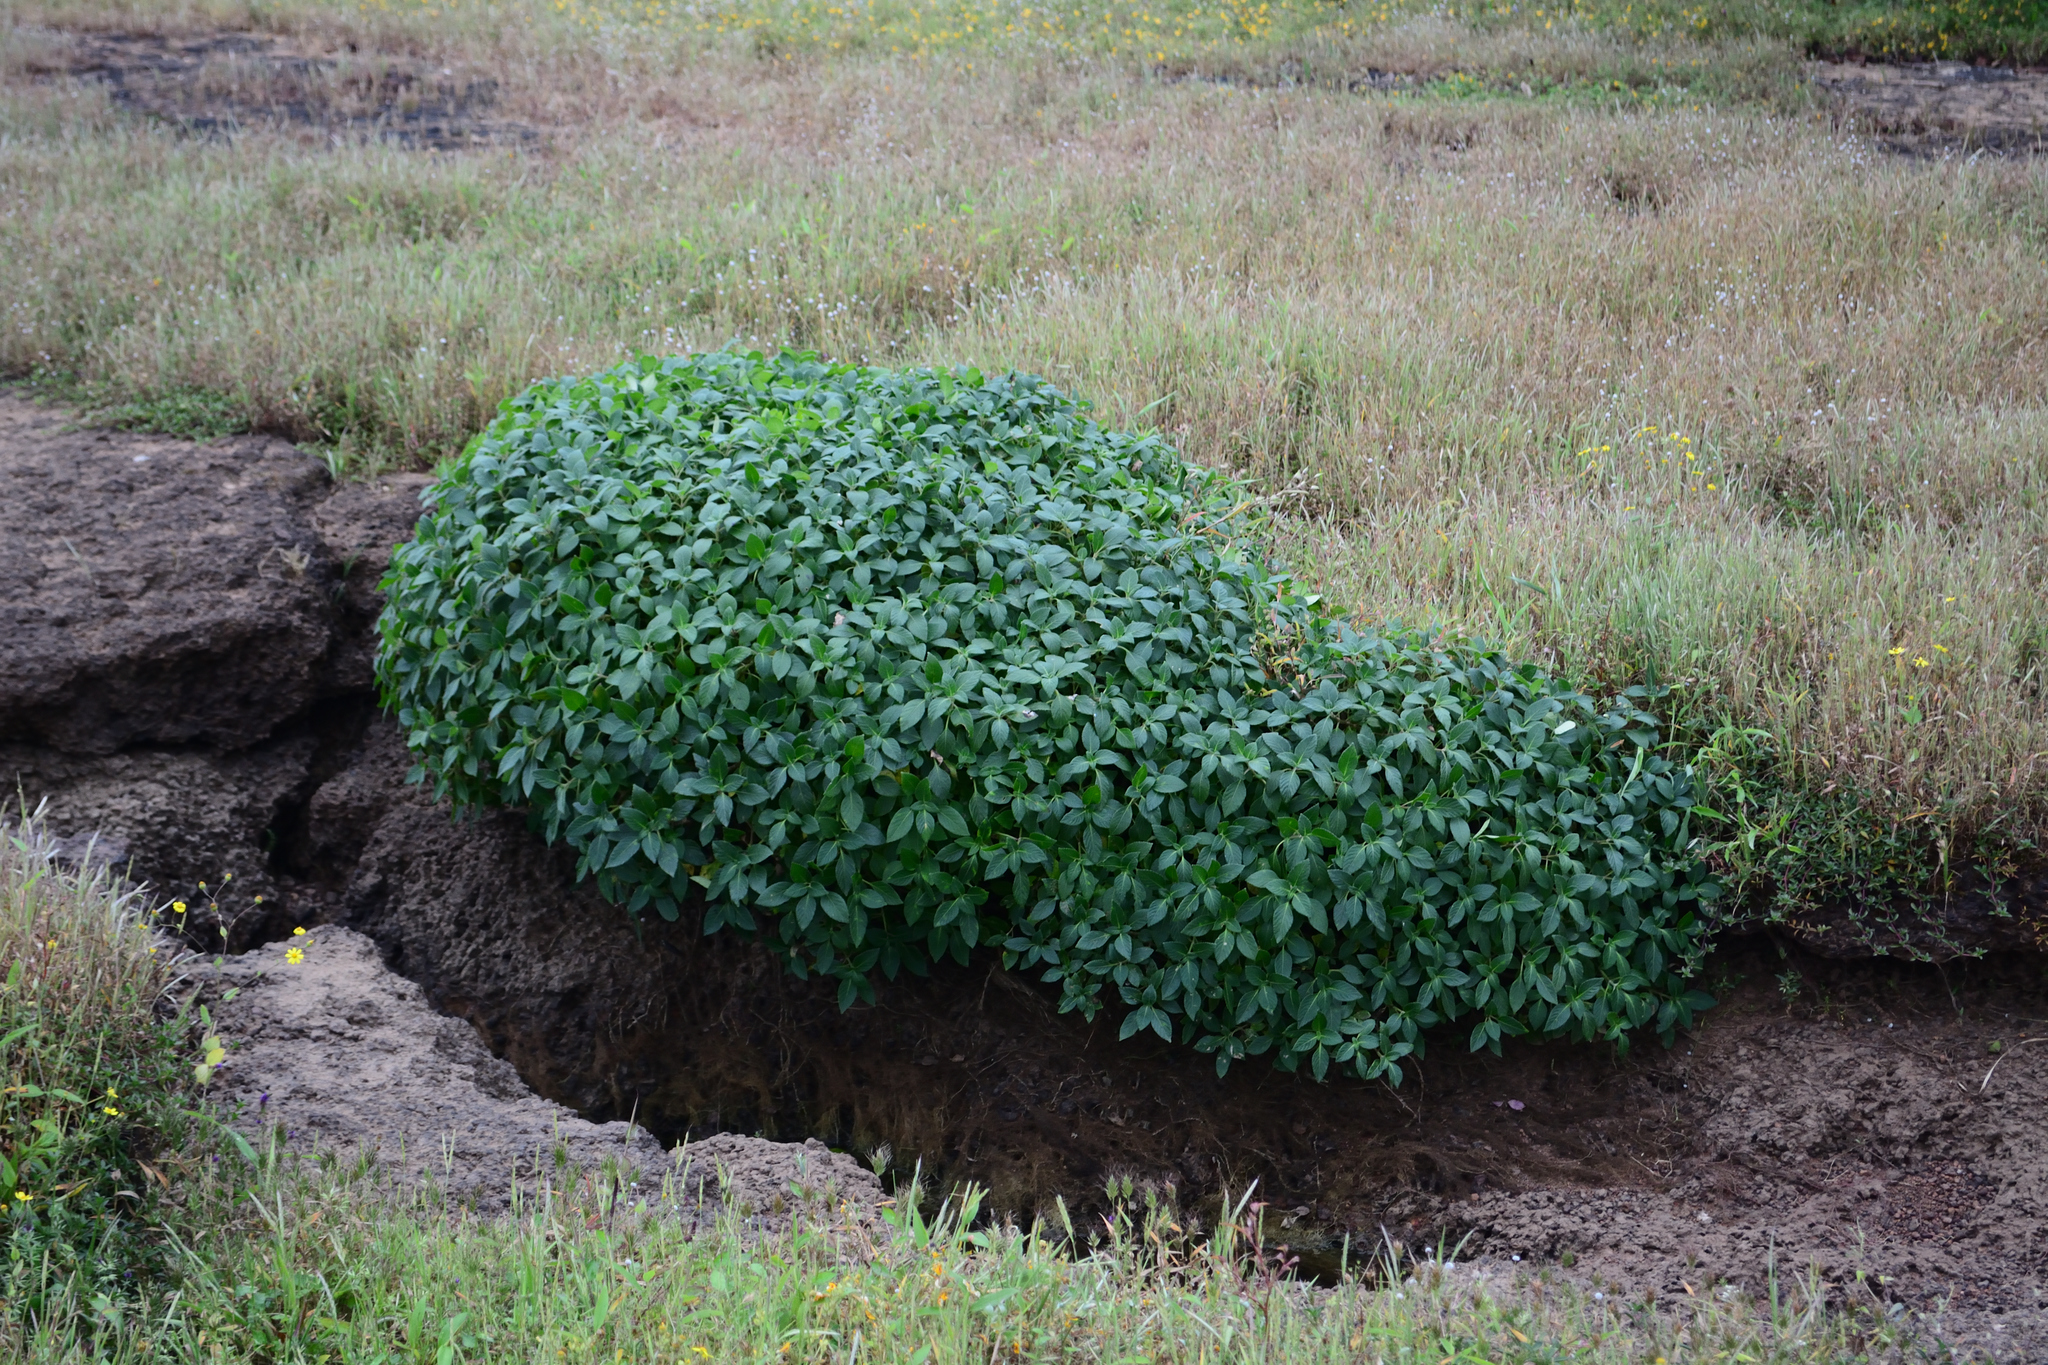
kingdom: Plantae
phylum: Tracheophyta
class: Magnoliopsida
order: Lamiales
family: Acanthaceae
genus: Strobilanthes
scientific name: Strobilanthes scrobiculata
